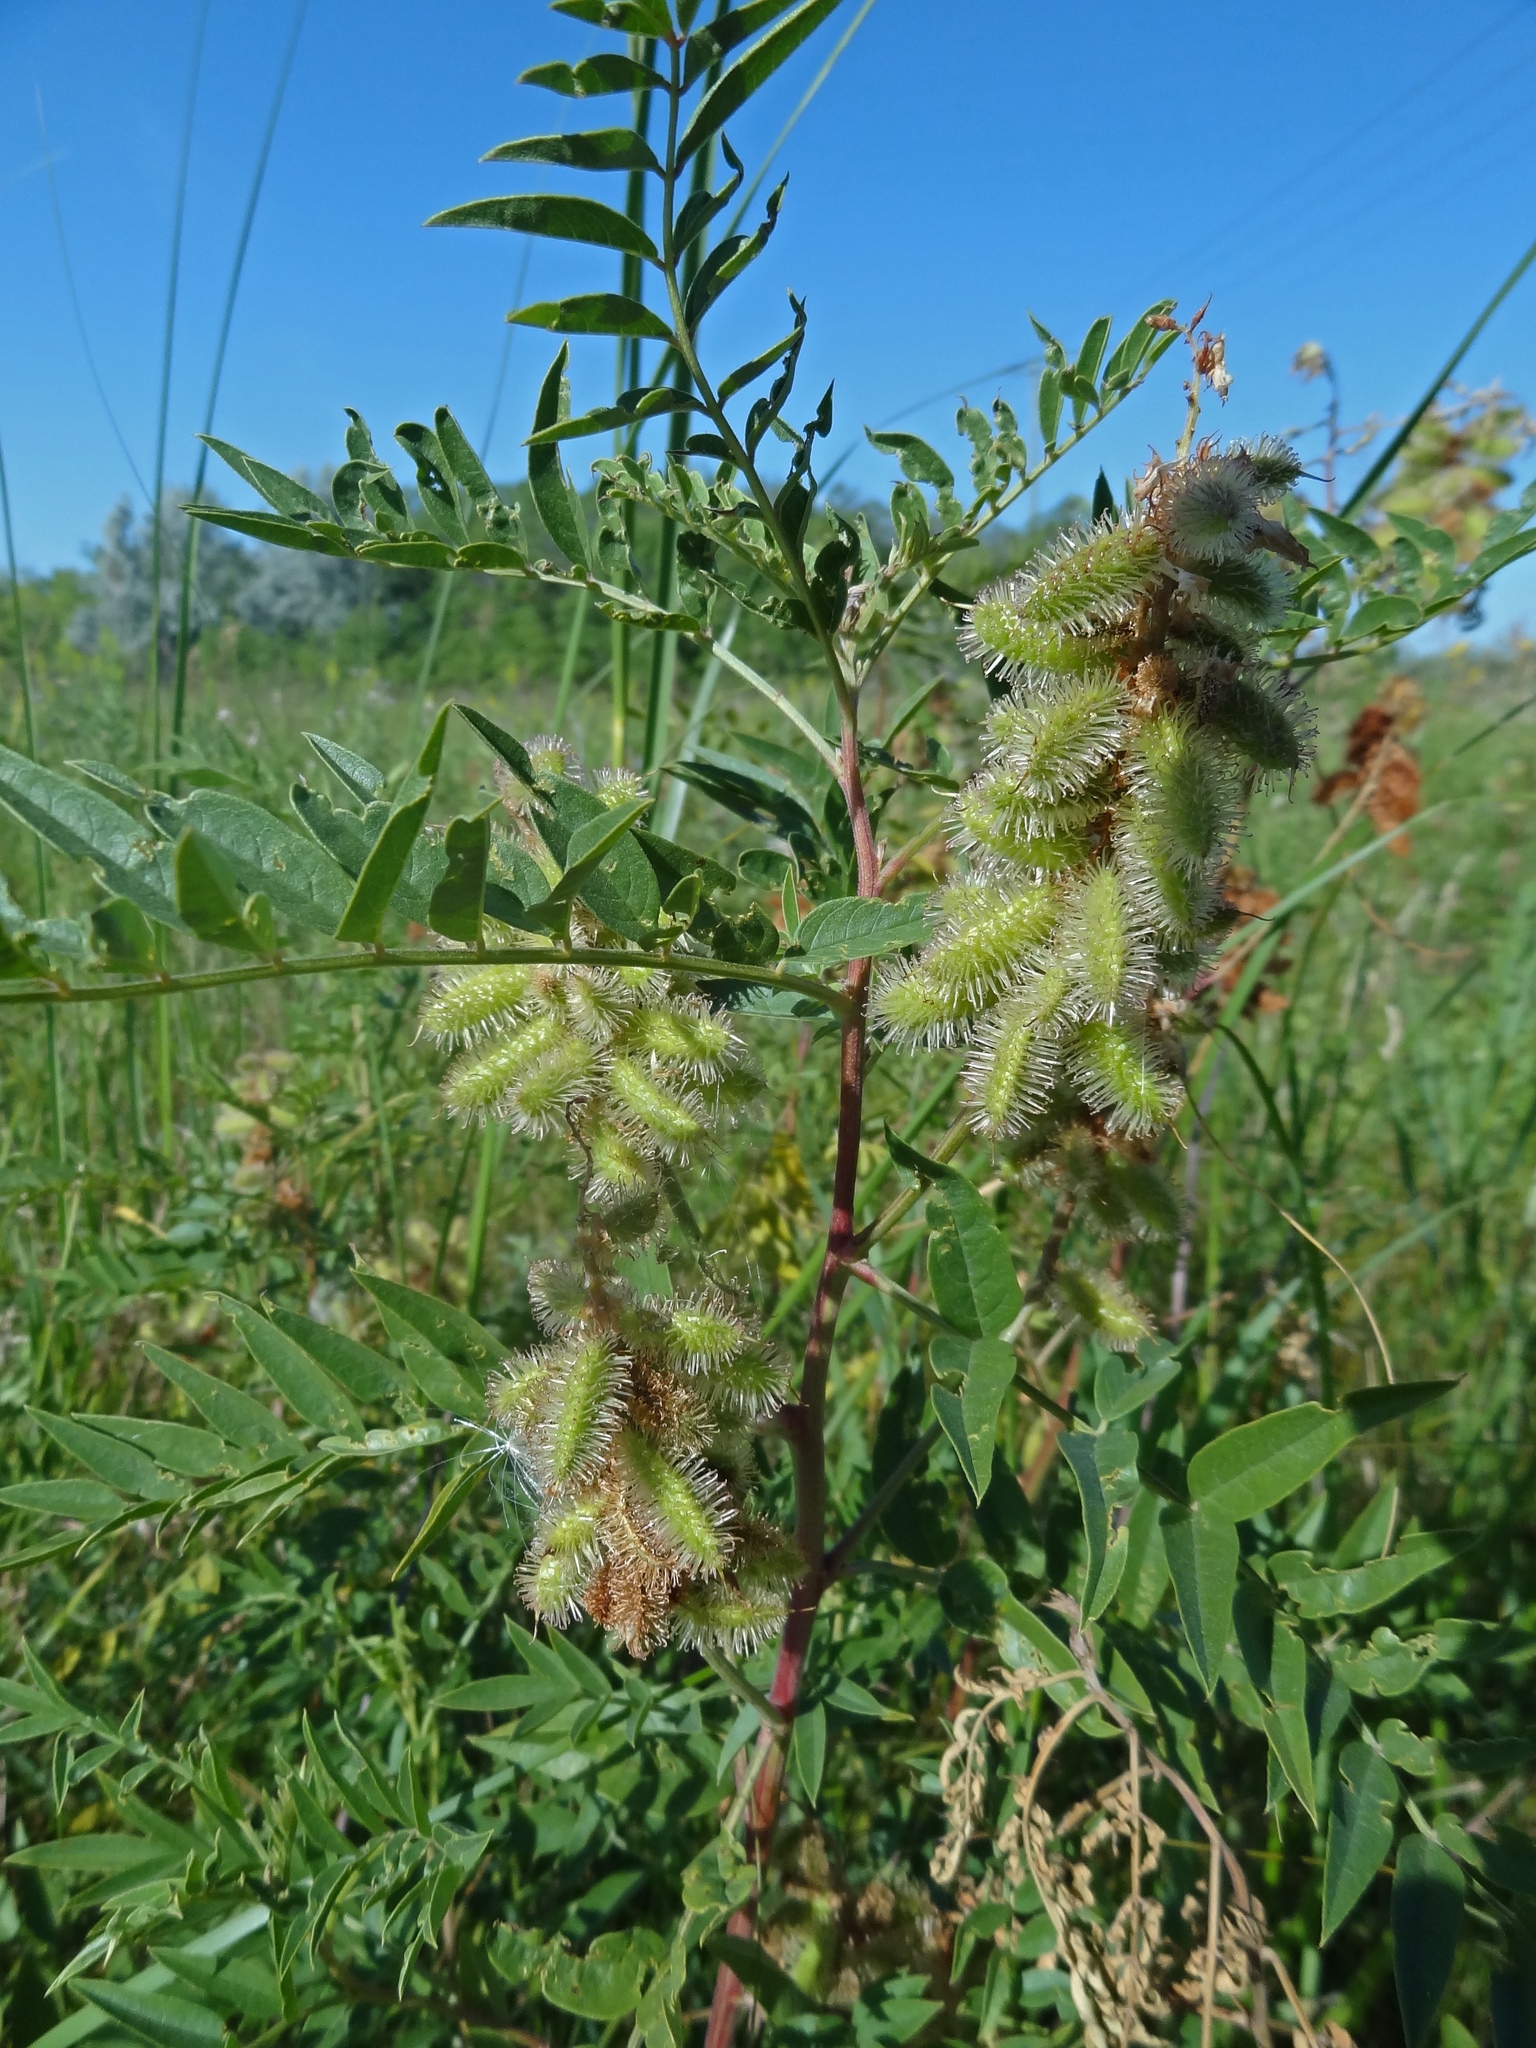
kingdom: Plantae
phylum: Tracheophyta
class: Magnoliopsida
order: Fabales
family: Fabaceae
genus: Glycyrrhiza
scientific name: Glycyrrhiza lepidota
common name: American liquorice
